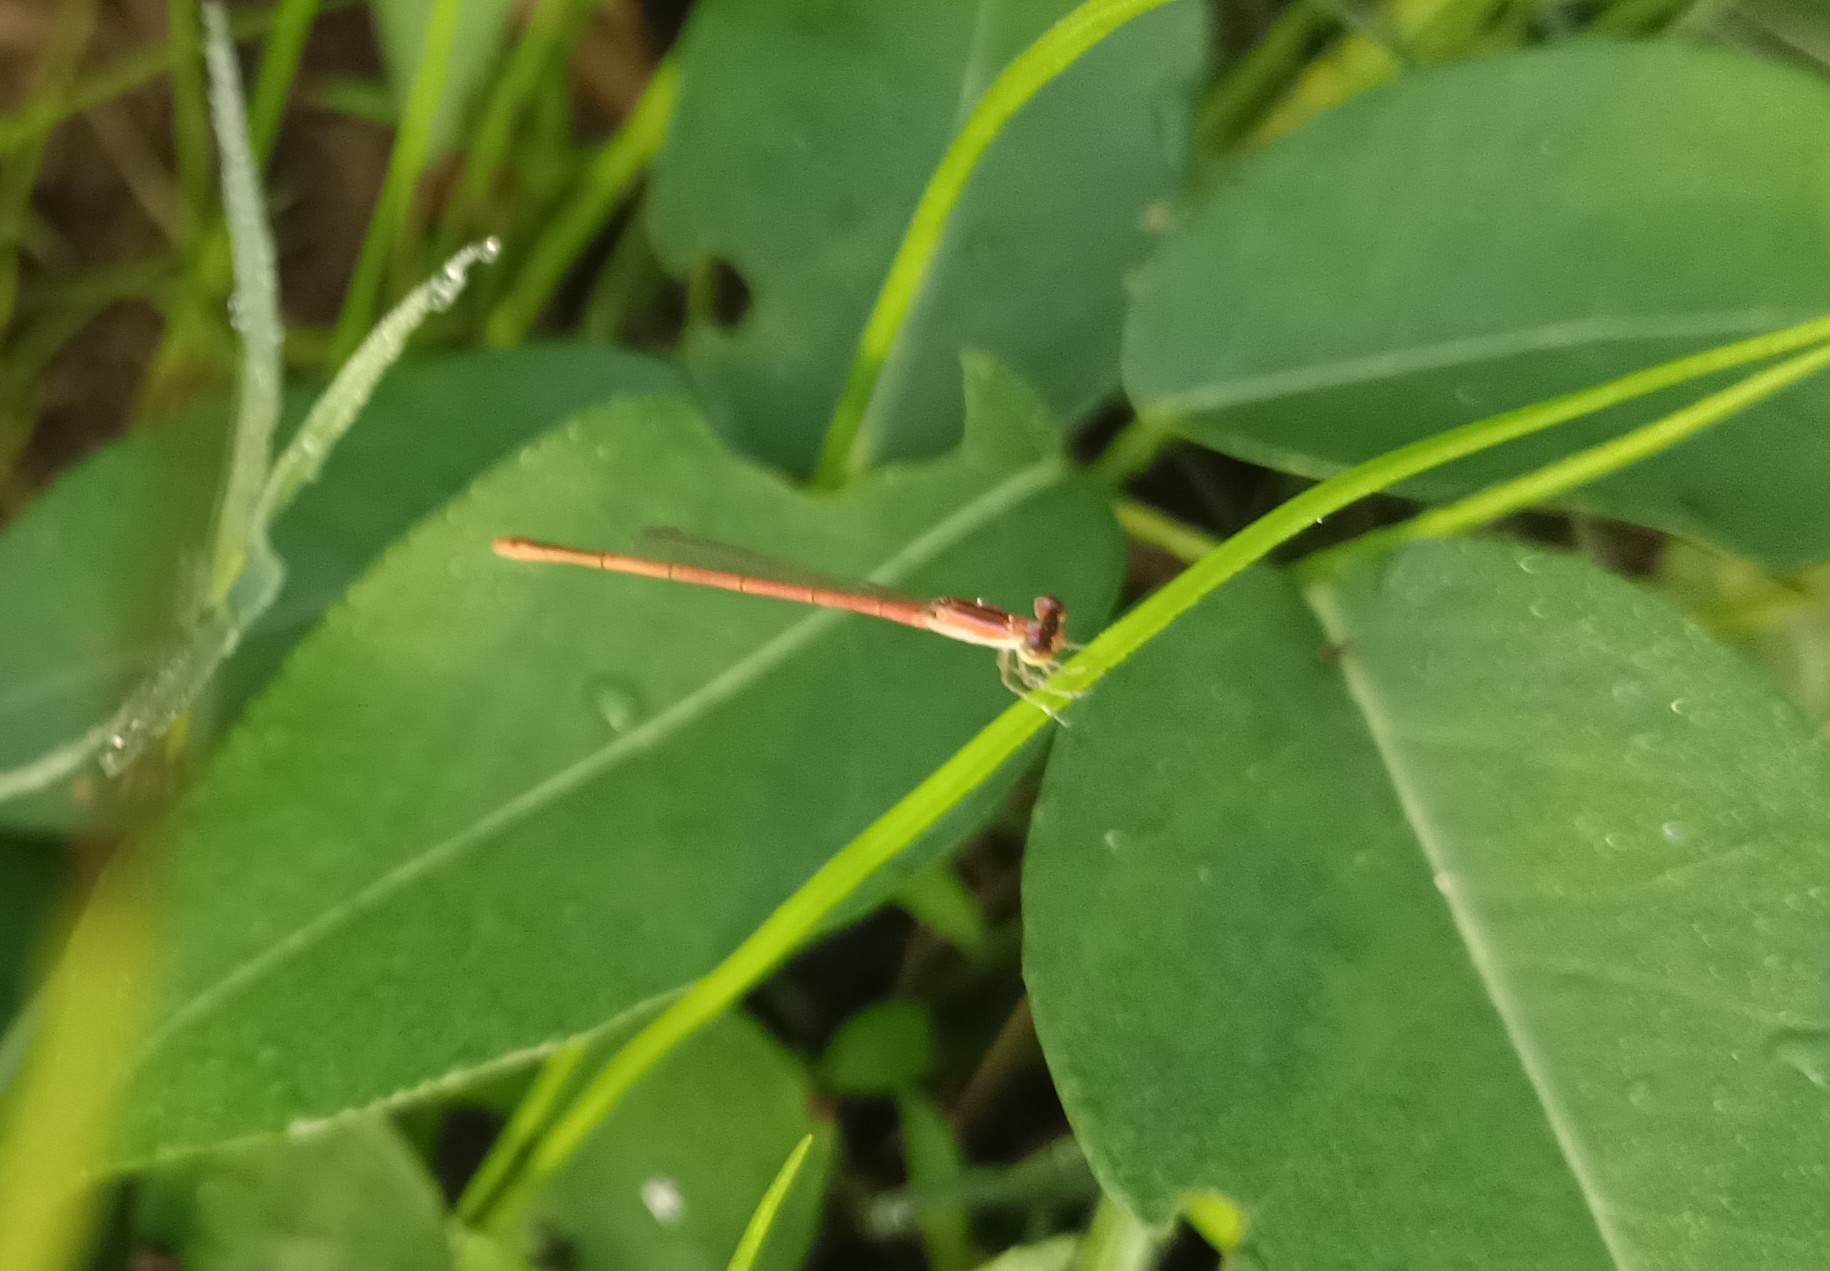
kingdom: Animalia
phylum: Arthropoda
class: Insecta
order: Odonata
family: Coenagrionidae
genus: Agriocnemis
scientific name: Agriocnemis pygmaea
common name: Pygmy wisp
